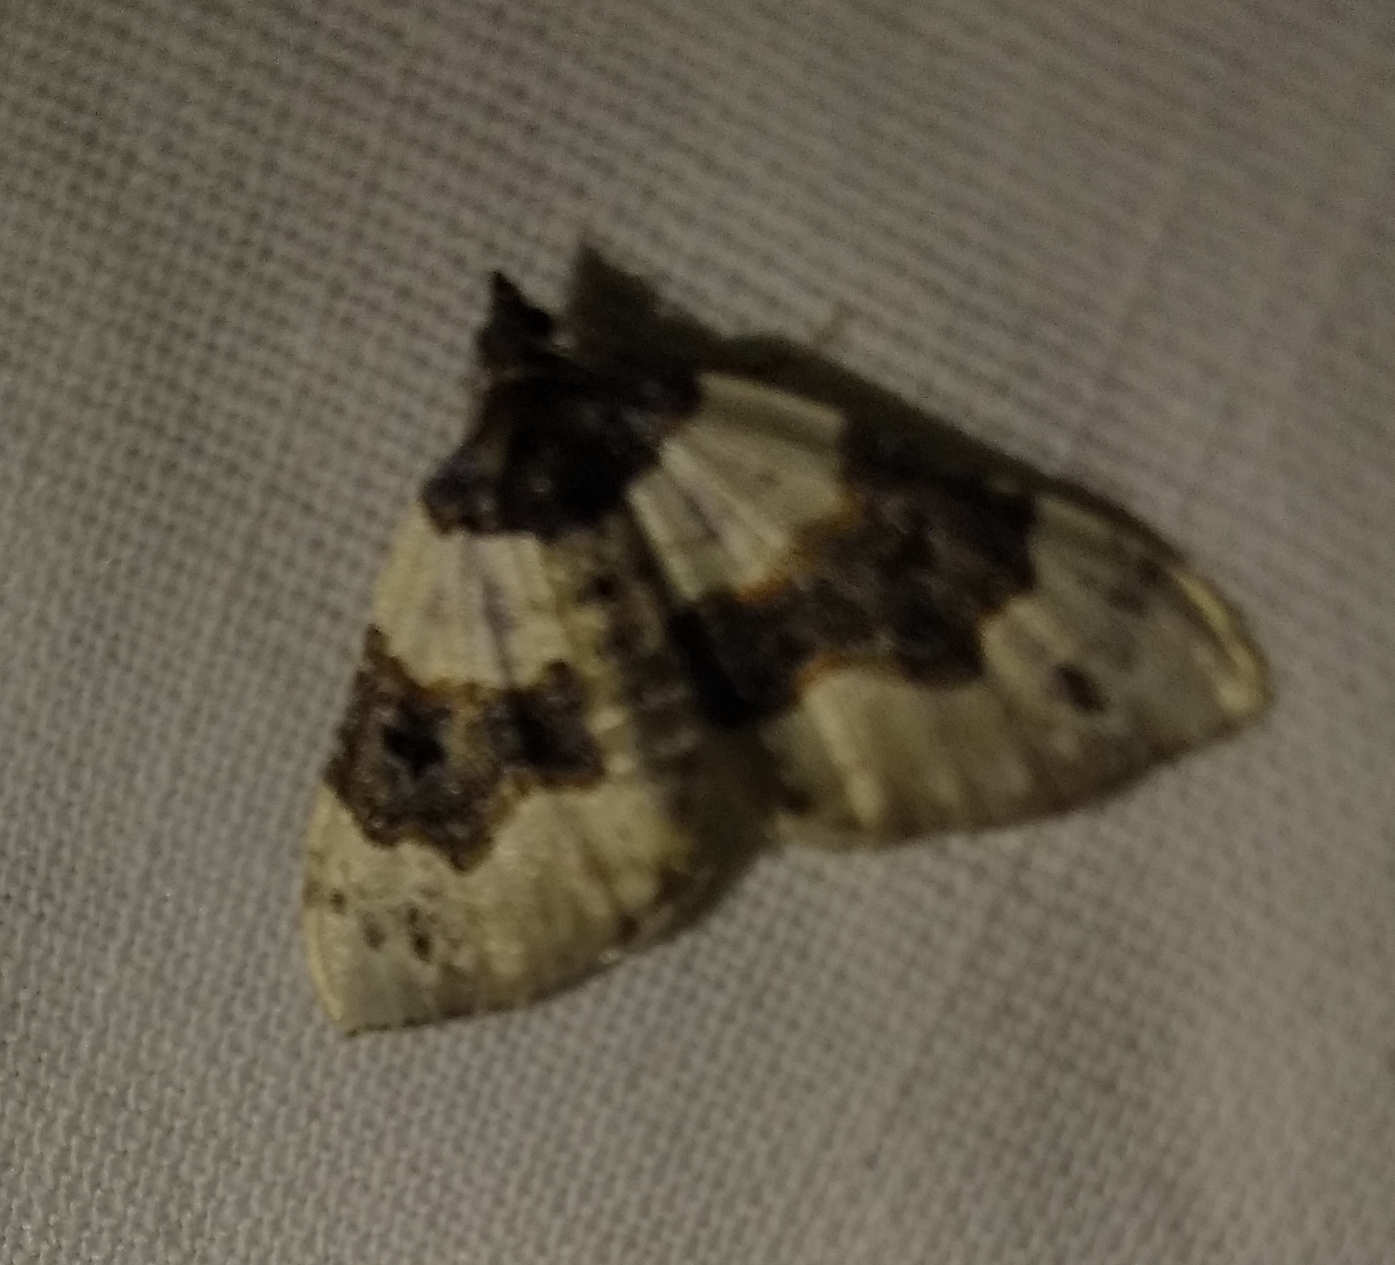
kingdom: Animalia
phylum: Arthropoda
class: Insecta
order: Lepidoptera
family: Geometridae
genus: Cosmorhoe
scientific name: Cosmorhoe ocellata
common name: Purple bar
